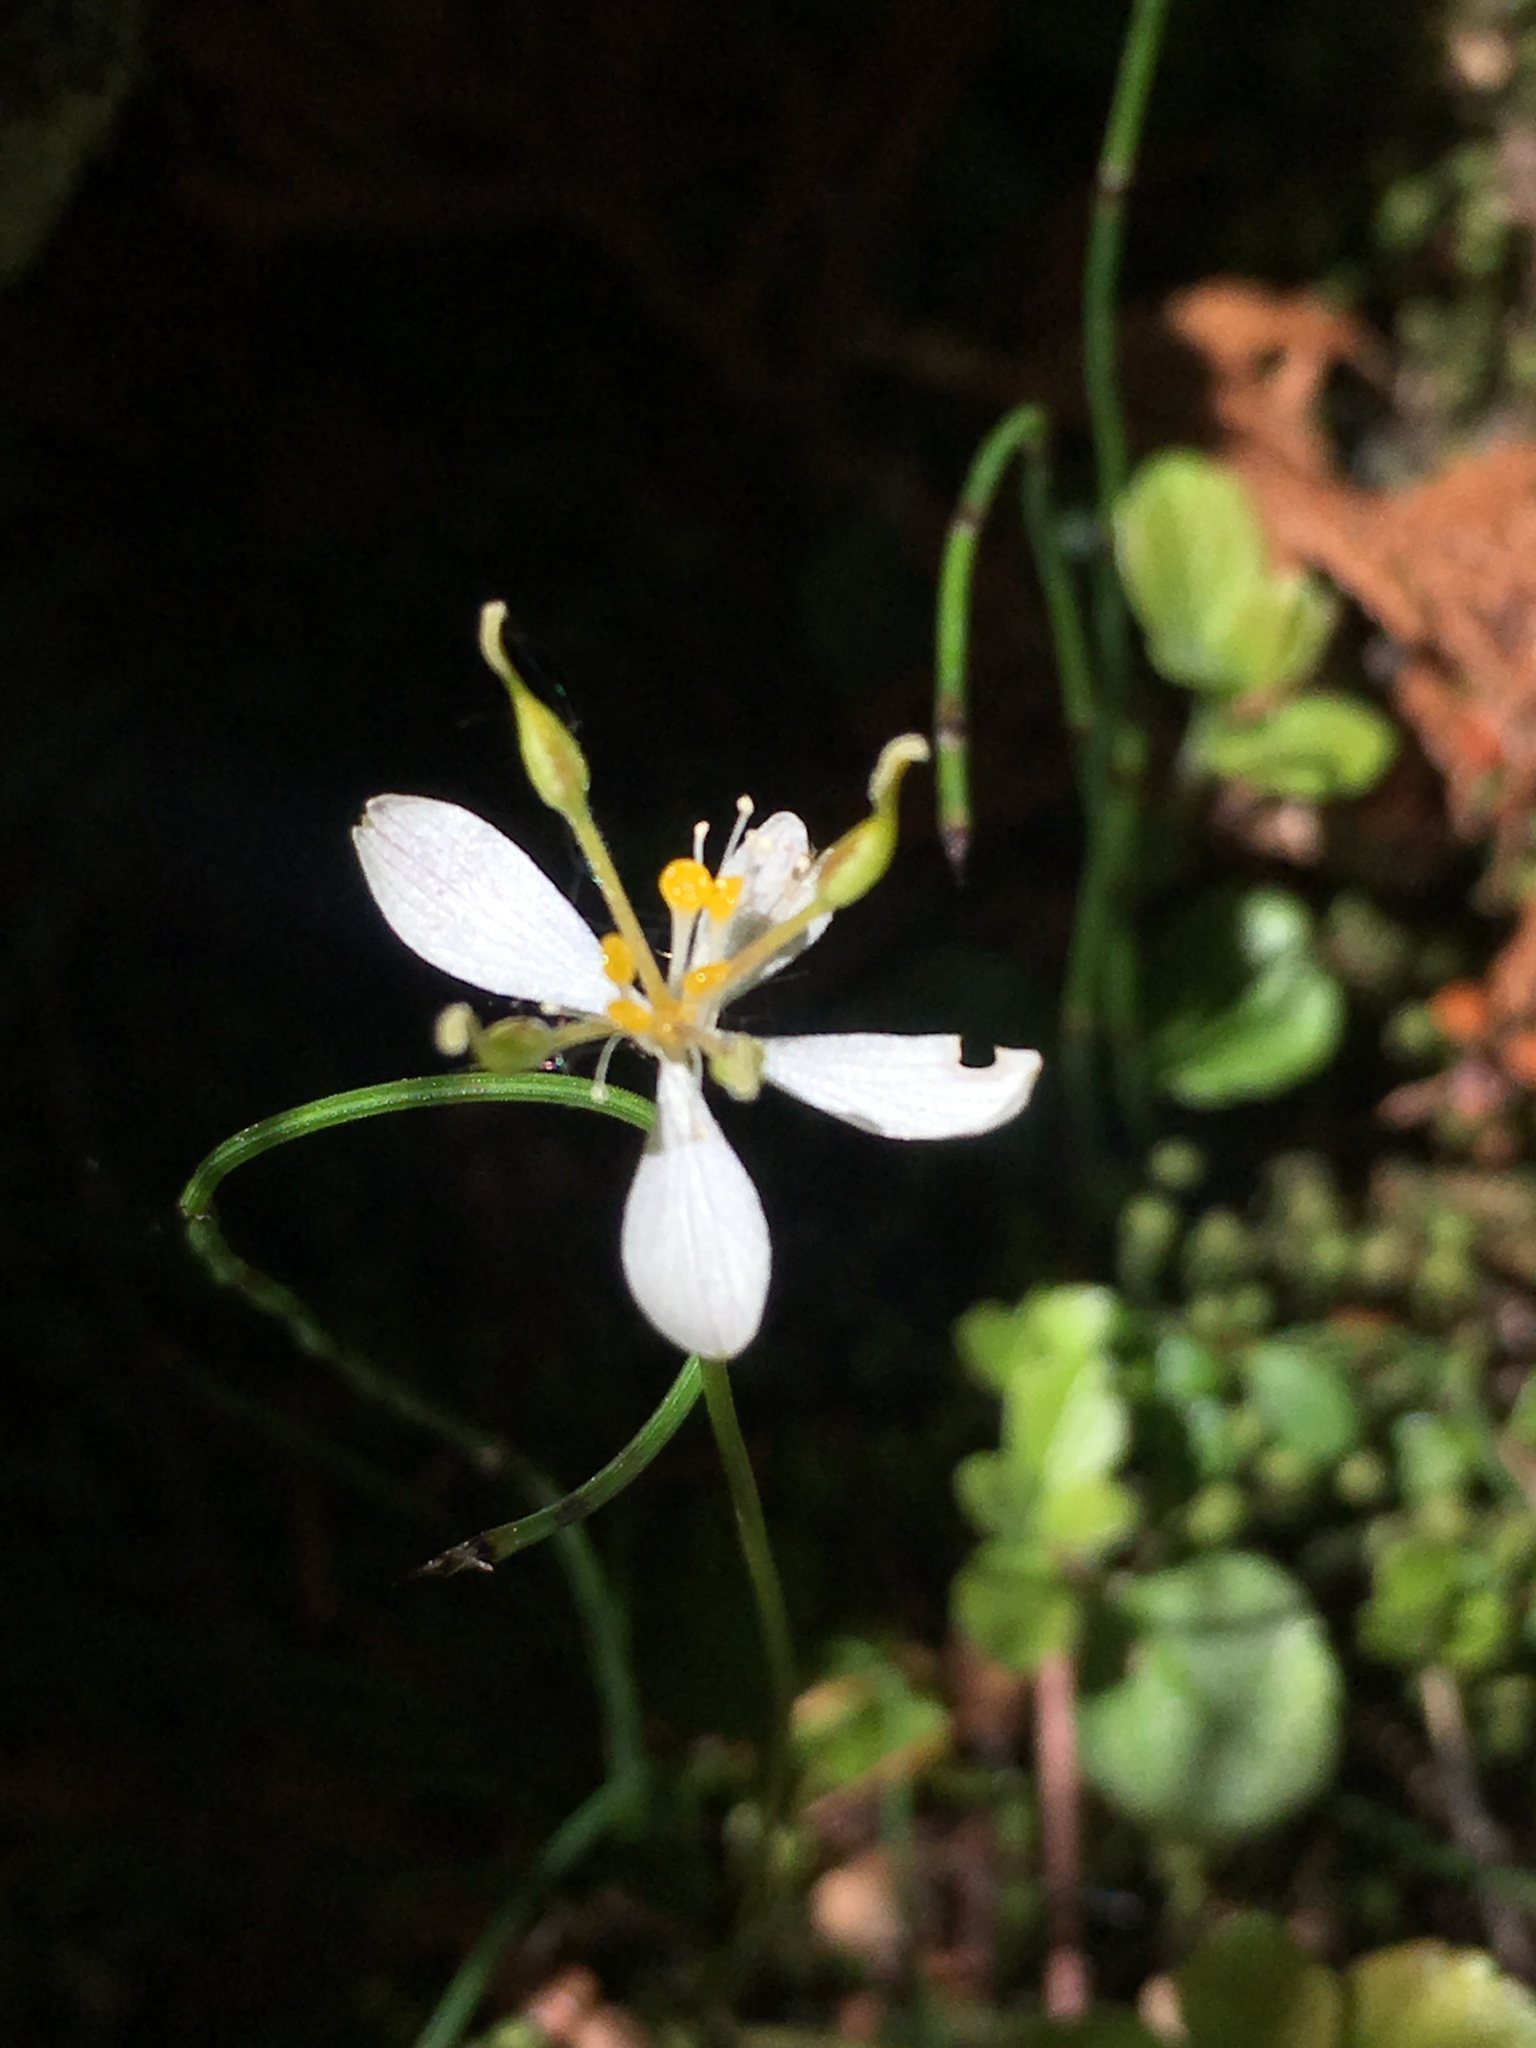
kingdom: Plantae
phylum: Tracheophyta
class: Magnoliopsida
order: Ranunculales
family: Ranunculaceae
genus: Coptis
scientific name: Coptis trifolia
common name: Canker-root
